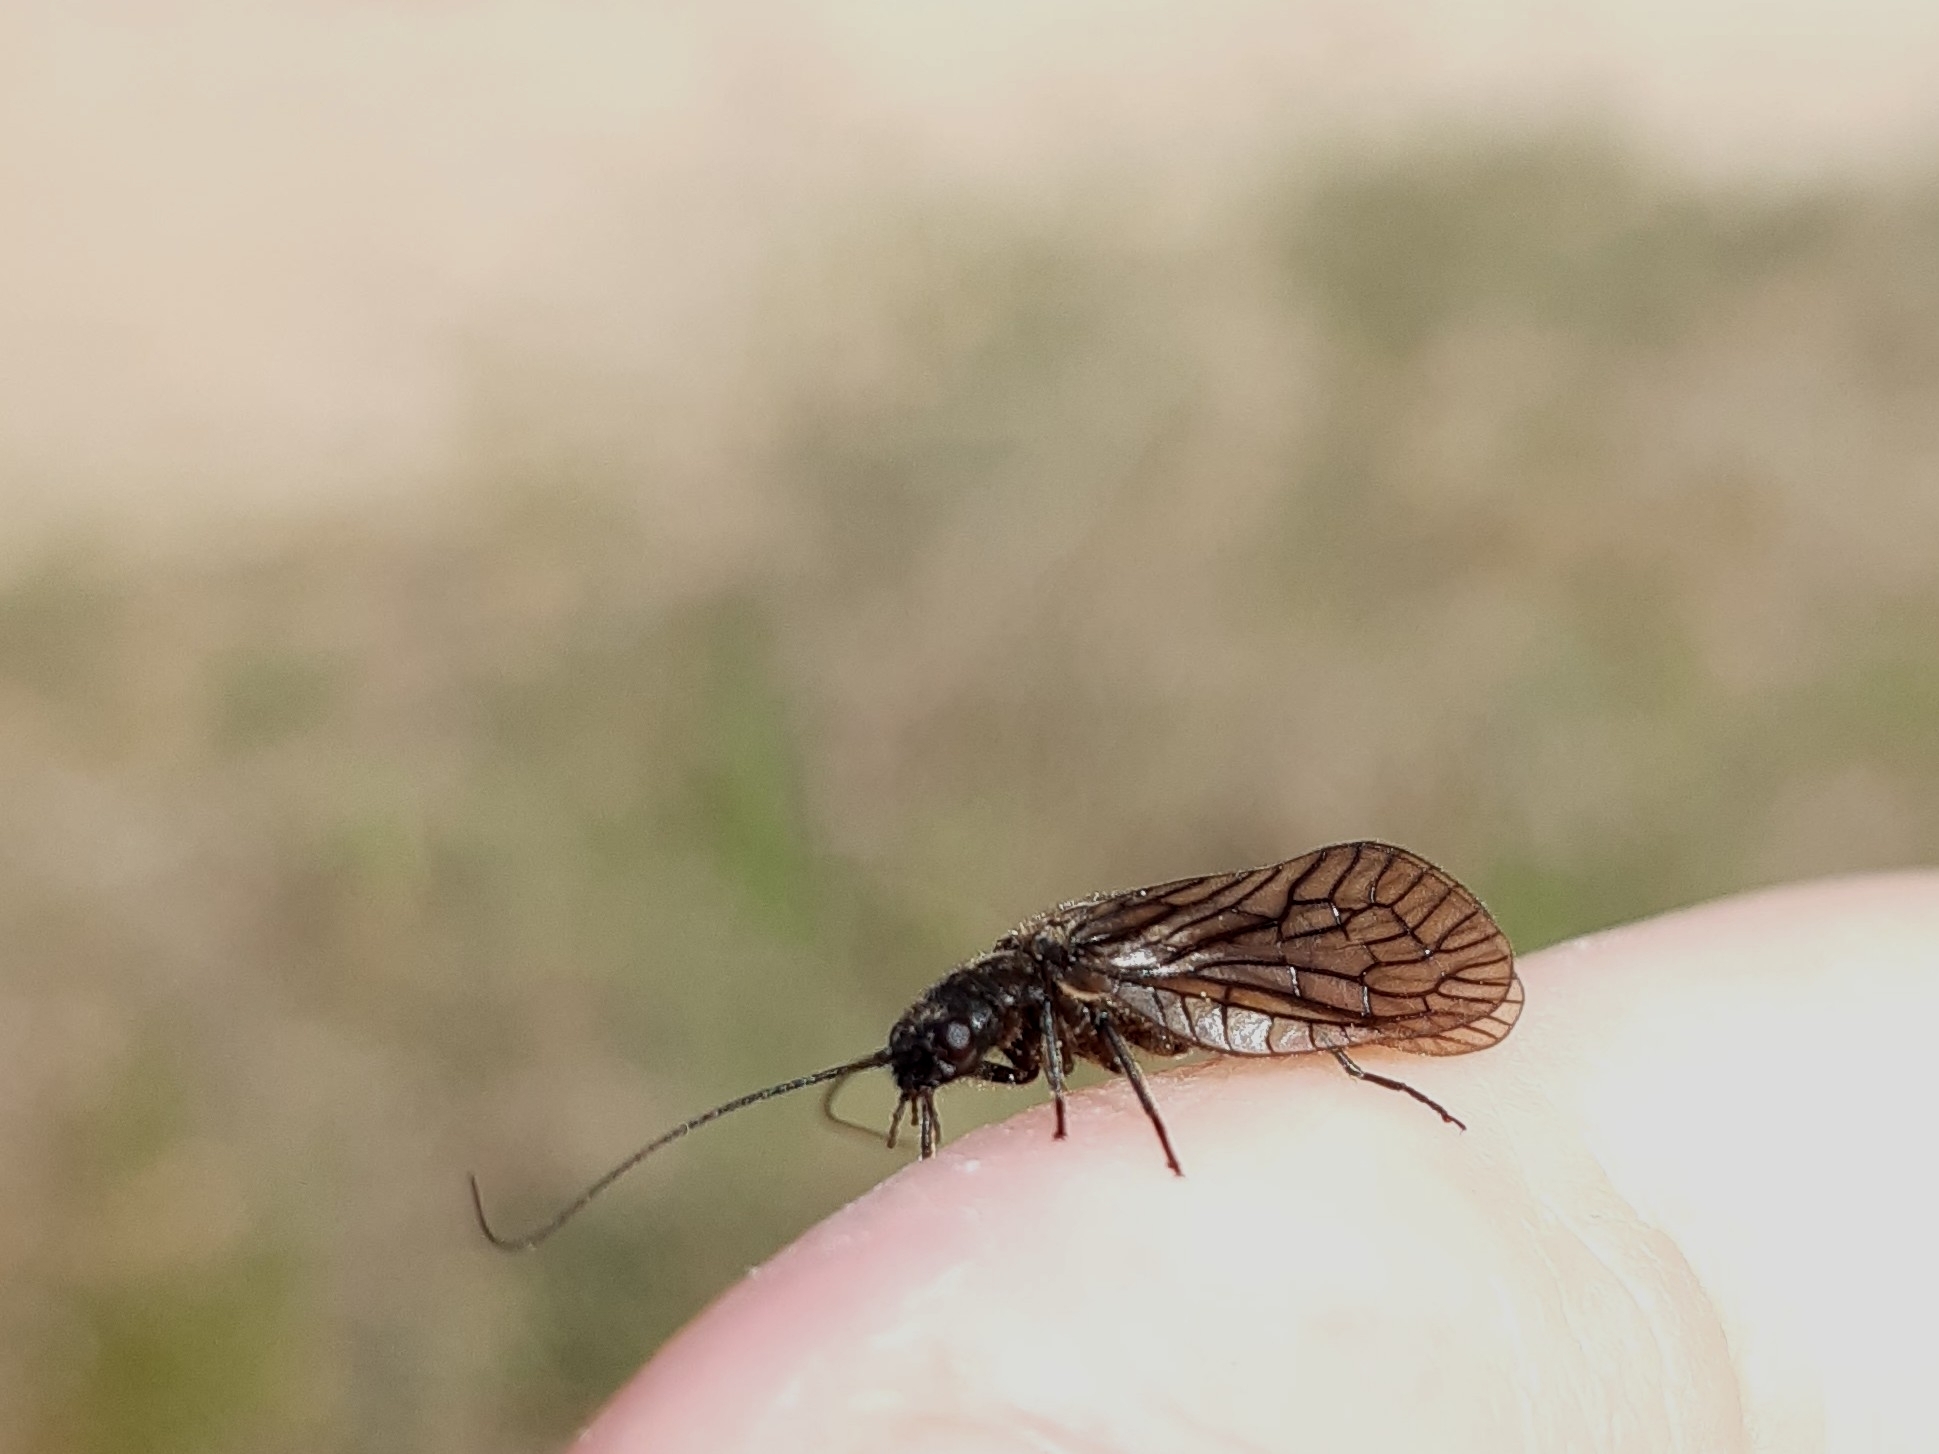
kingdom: Animalia
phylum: Arthropoda
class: Insecta
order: Megaloptera
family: Sialidae
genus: Sialis
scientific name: Sialis
